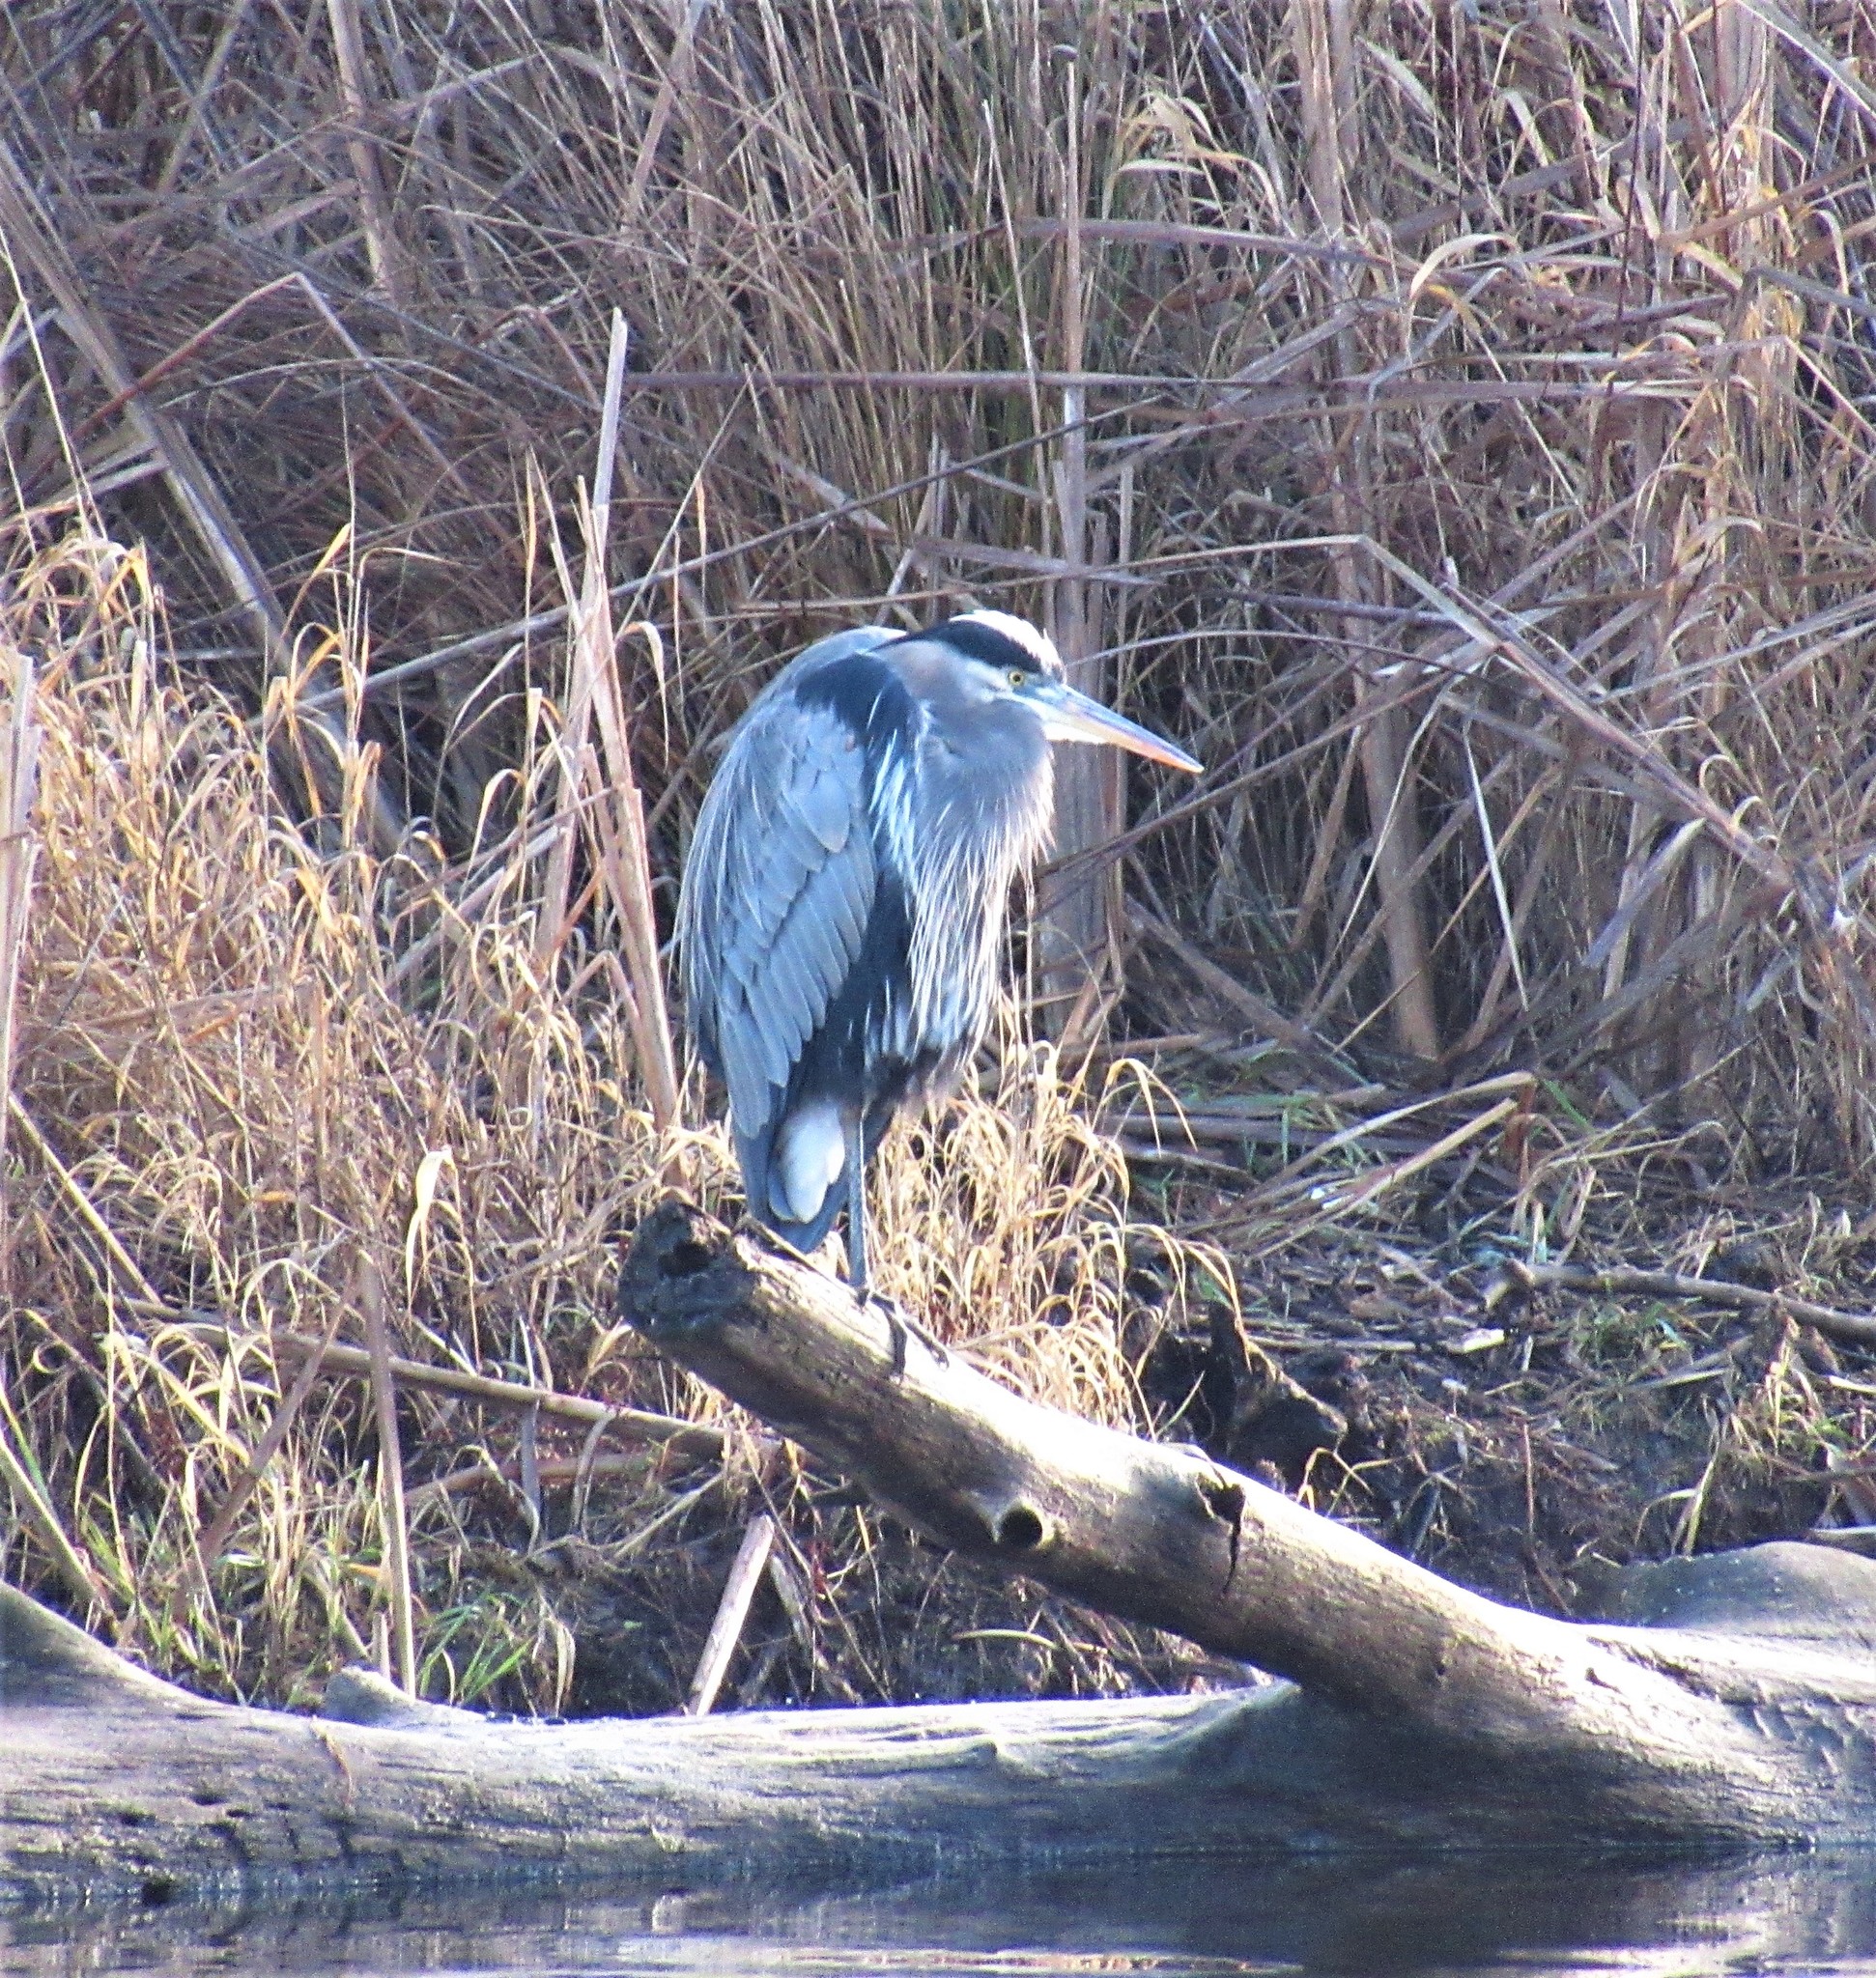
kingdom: Animalia
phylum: Chordata
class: Aves
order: Pelecaniformes
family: Ardeidae
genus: Ardea
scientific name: Ardea herodias
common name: Great blue heron
